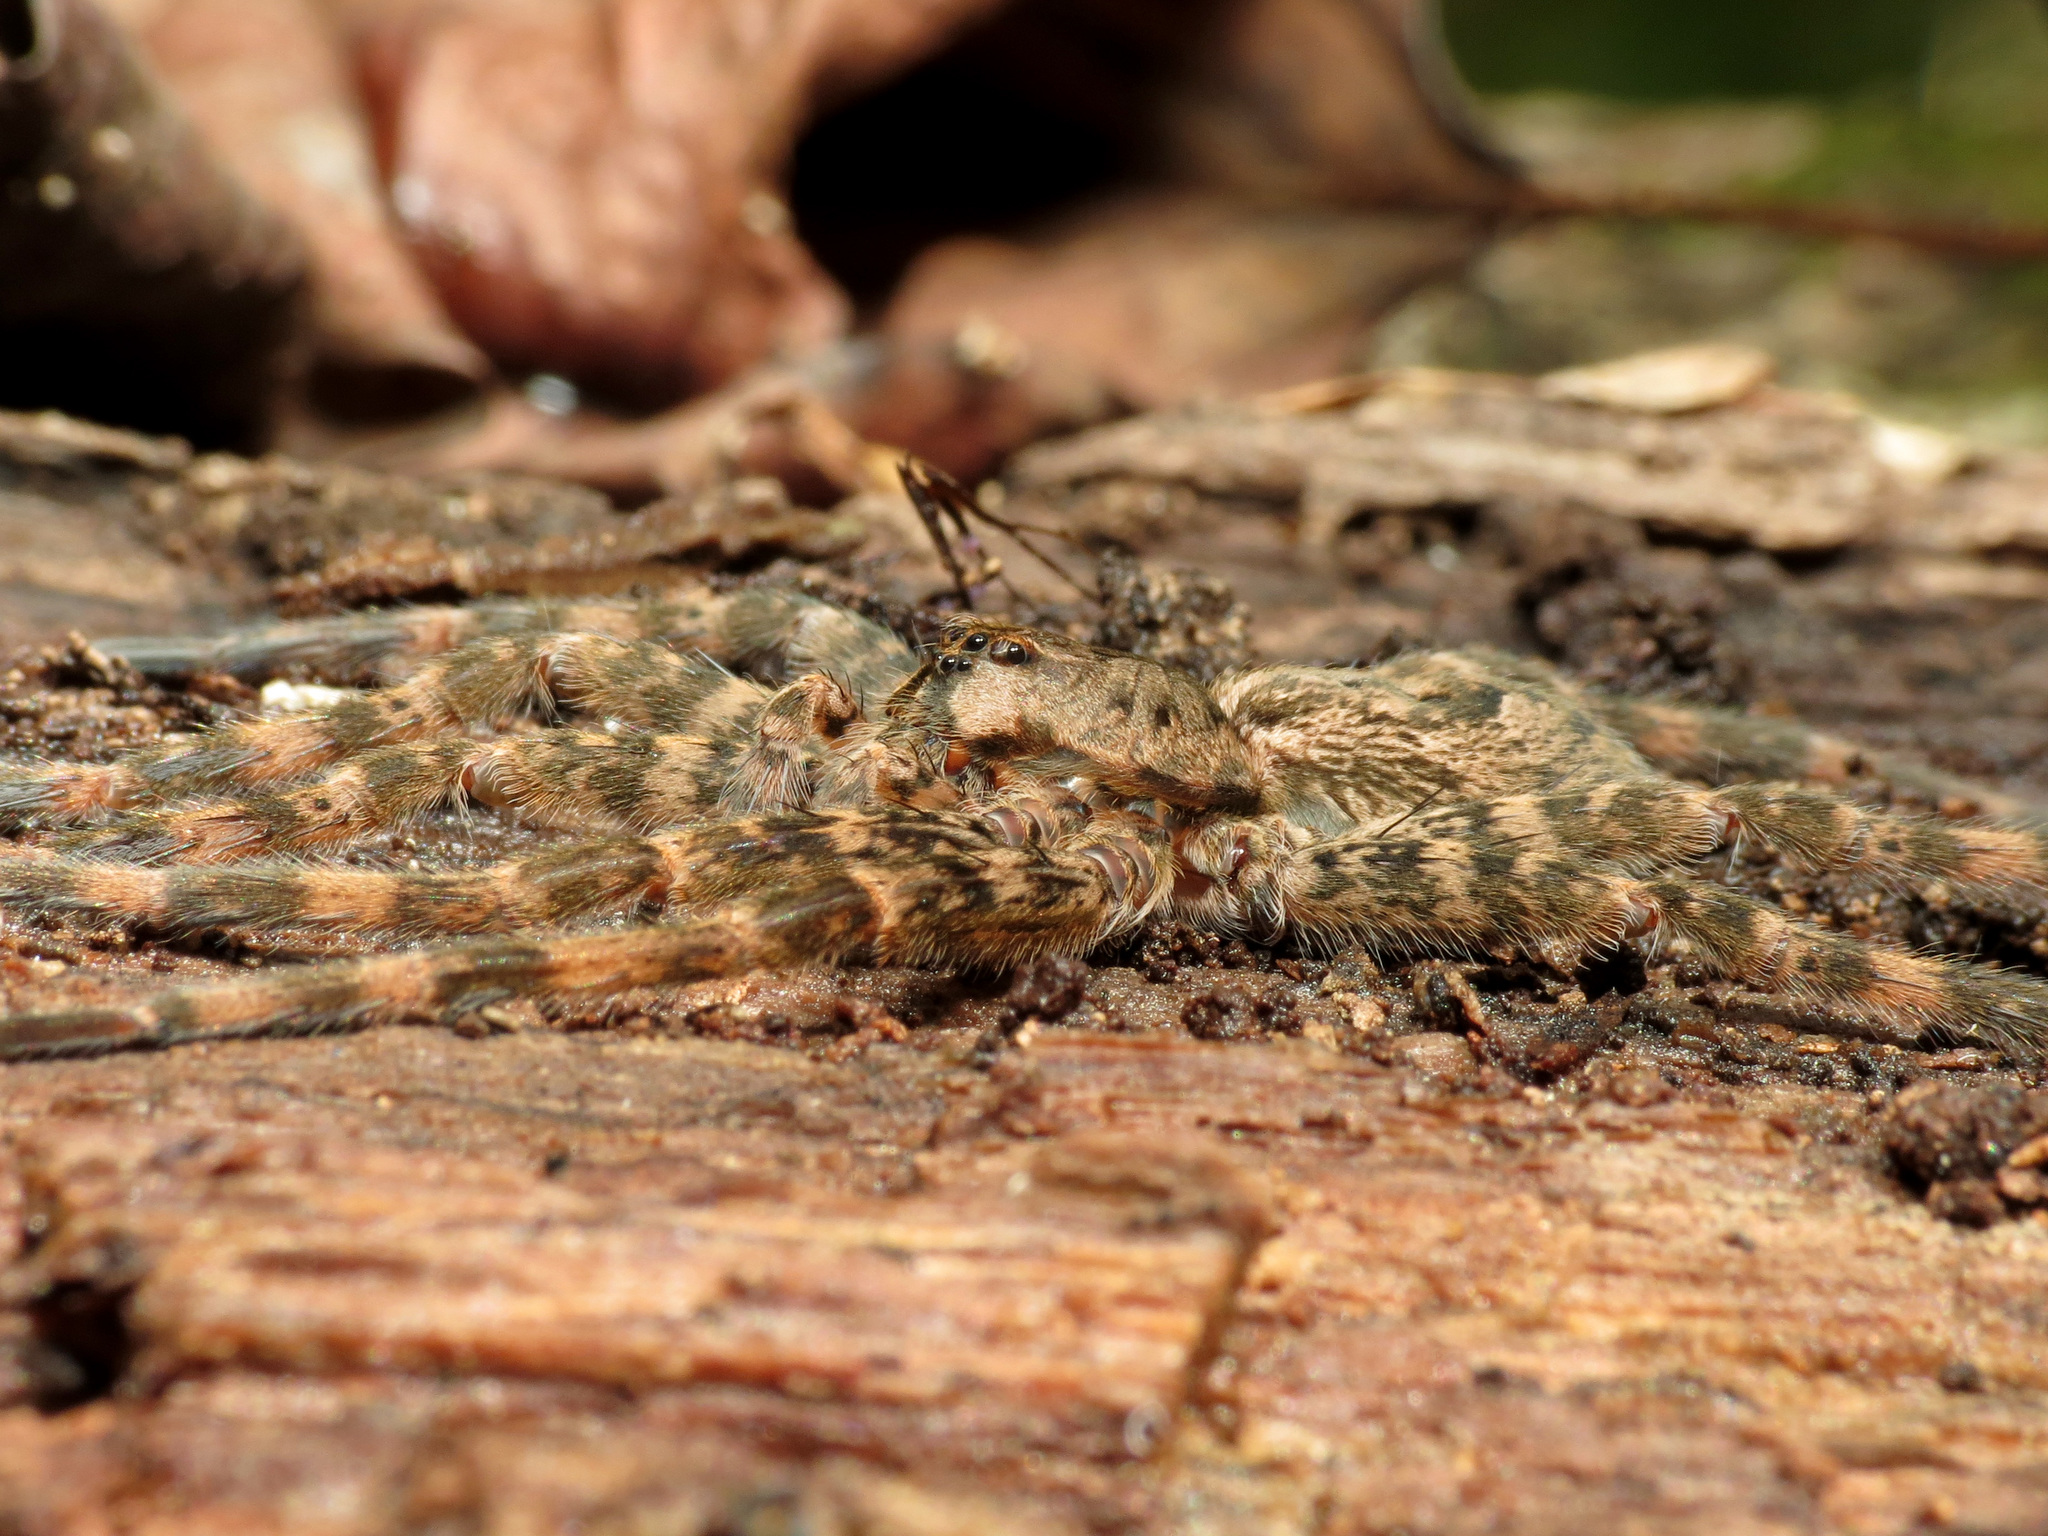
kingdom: Animalia
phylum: Arthropoda
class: Arachnida
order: Araneae
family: Pisauridae
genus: Dolomedes
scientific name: Dolomedes tenebrosus
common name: Dark fishing spider
